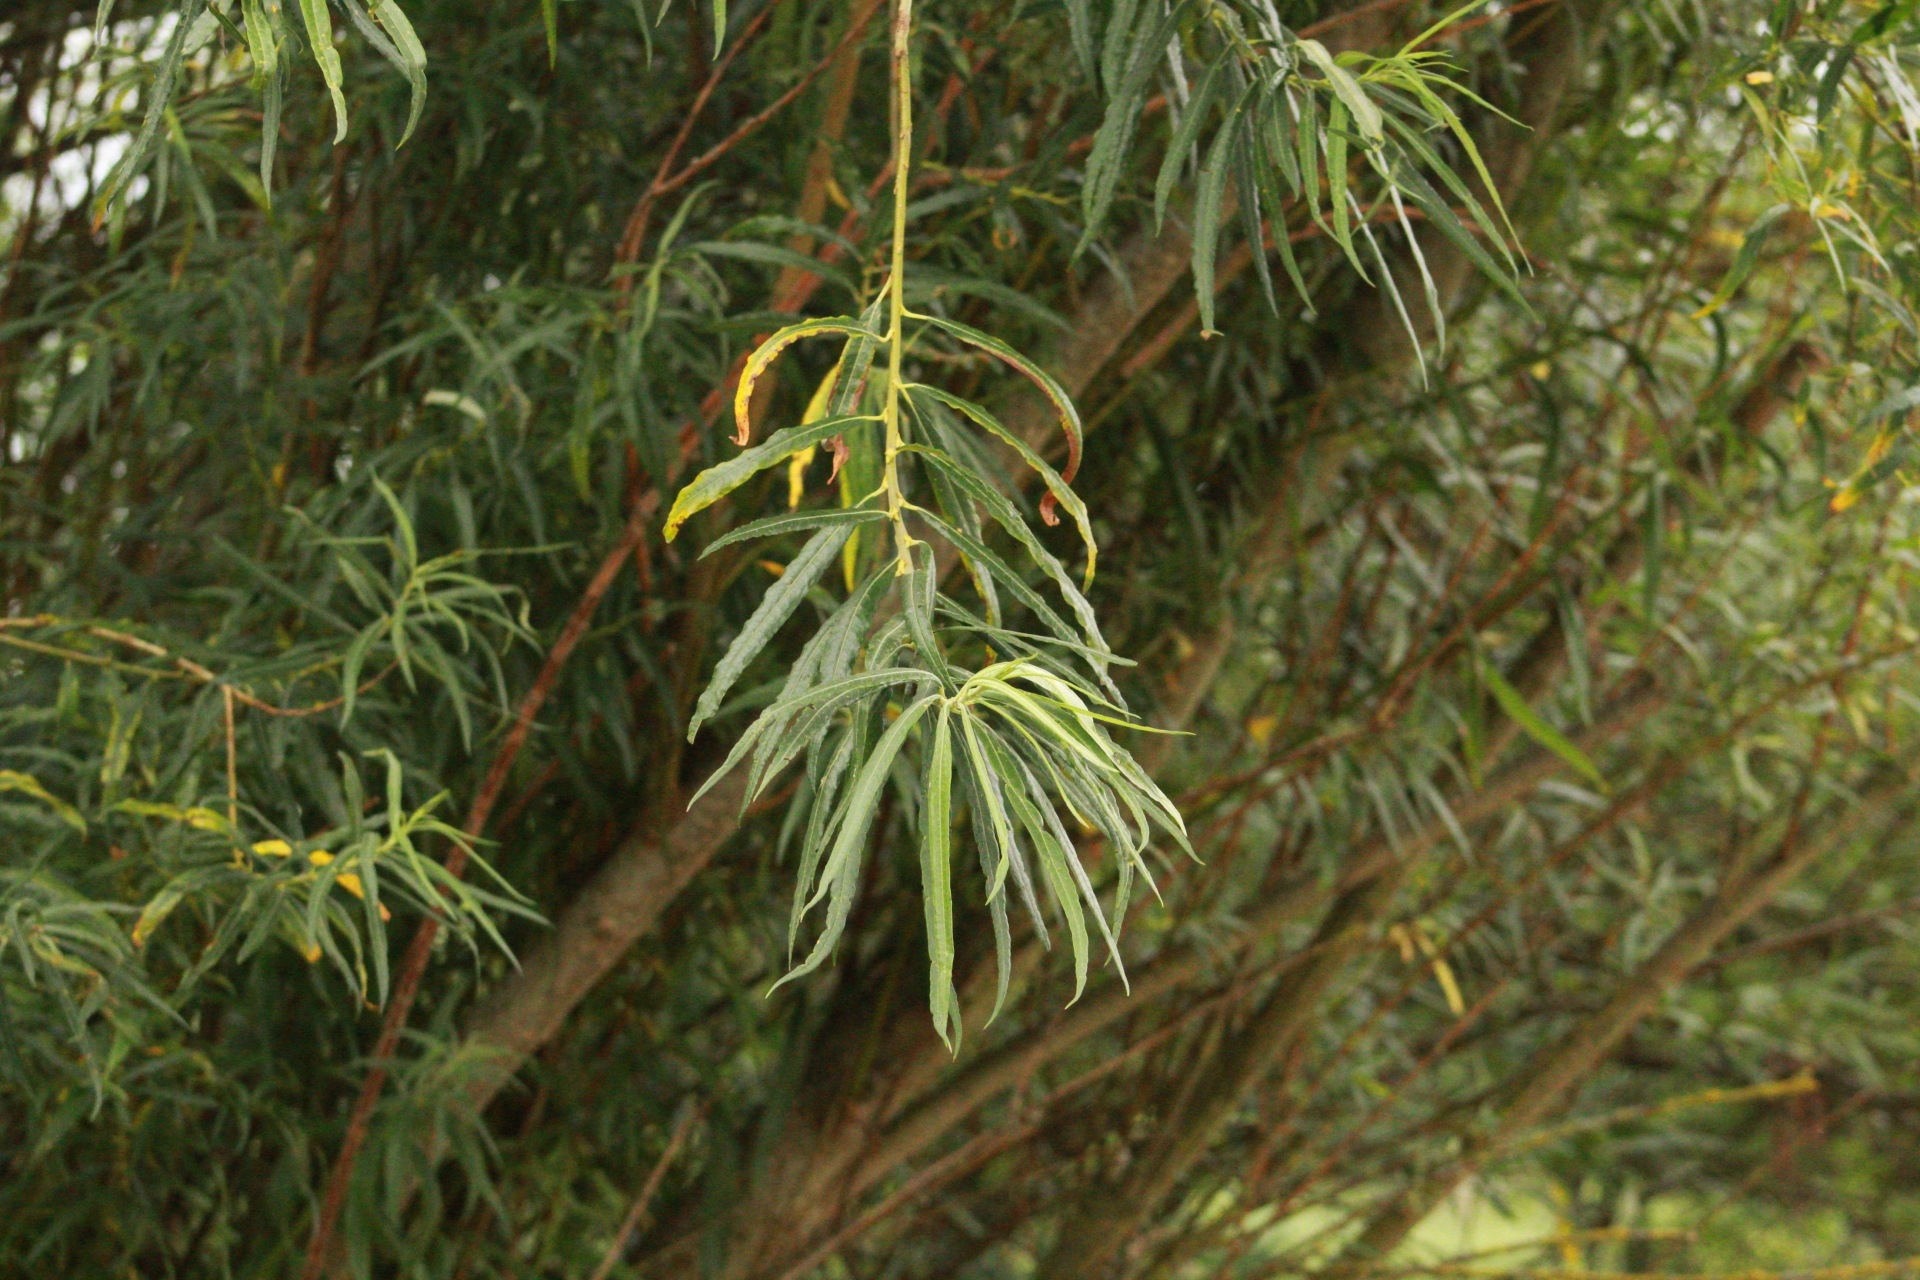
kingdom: Plantae
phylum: Tracheophyta
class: Magnoliopsida
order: Malpighiales
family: Salicaceae
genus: Salix
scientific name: Salix viminalis
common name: Osier
